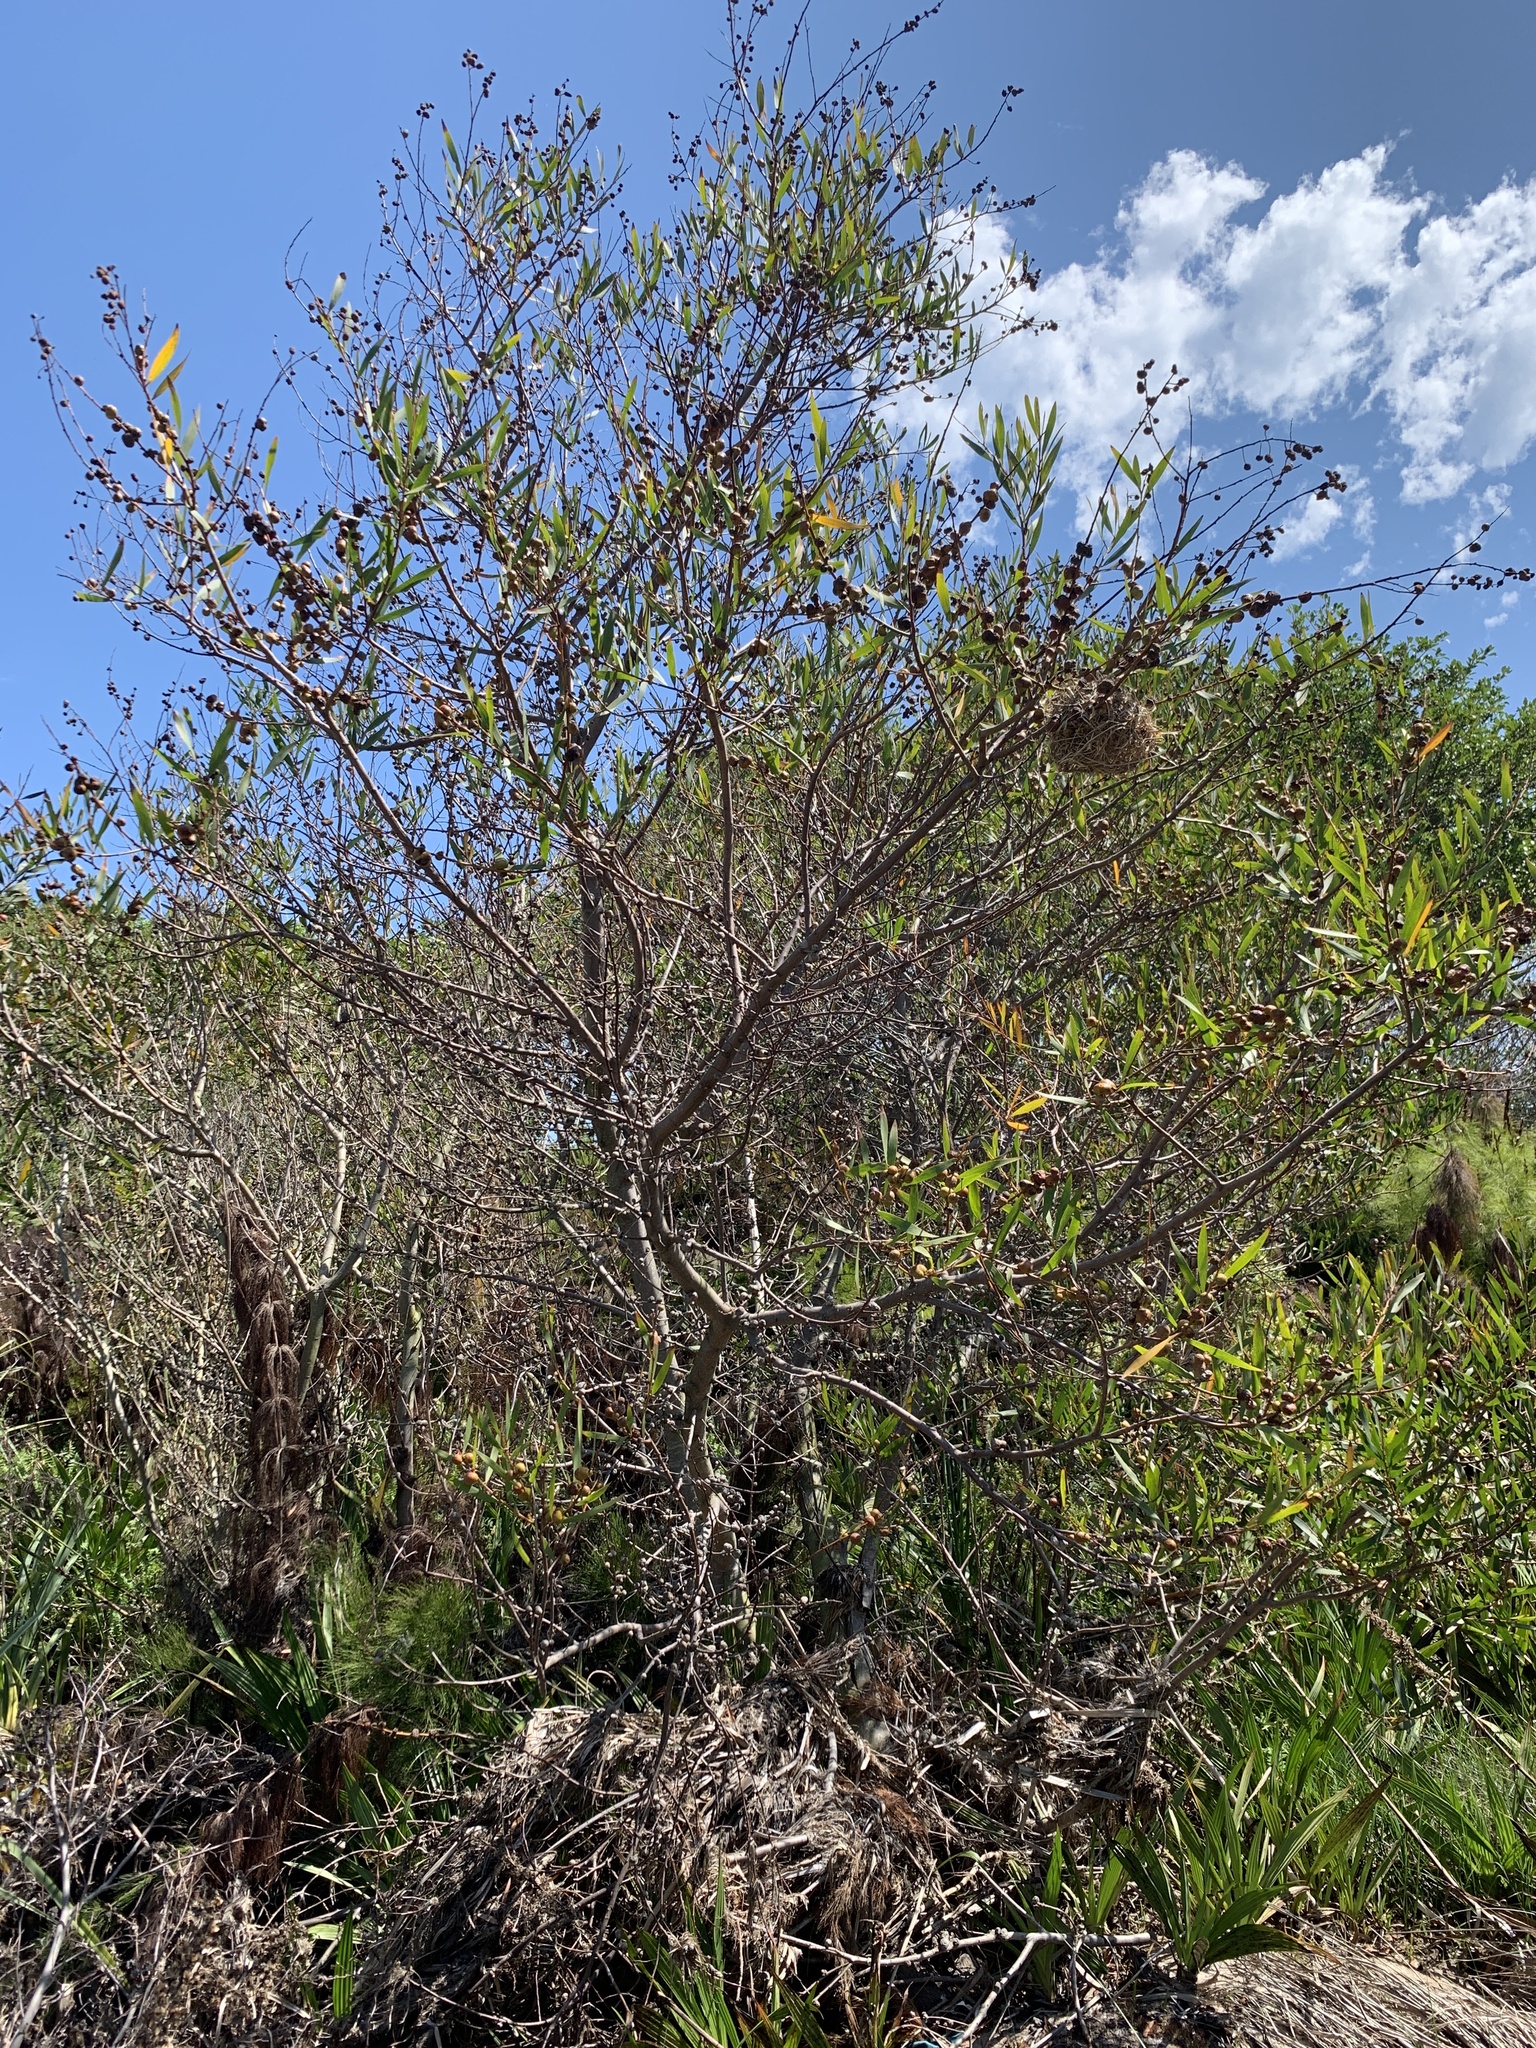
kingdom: Plantae
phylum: Tracheophyta
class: Magnoliopsida
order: Fabales
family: Fabaceae
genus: Acacia
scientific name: Acacia longifolia
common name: Sydney golden wattle
